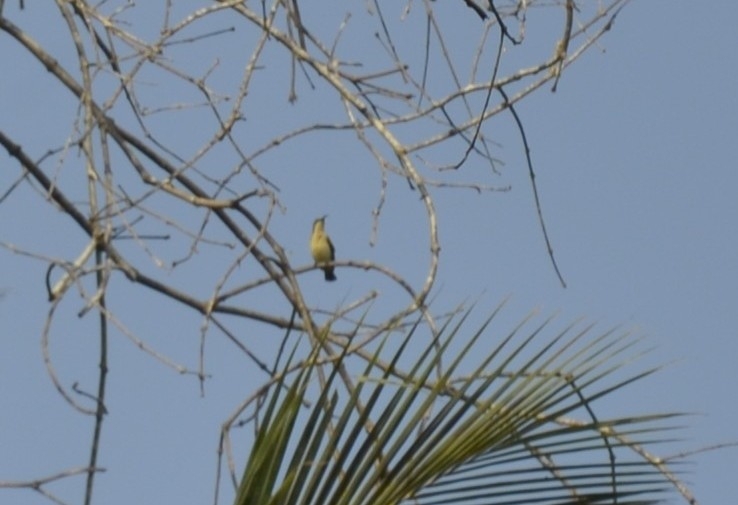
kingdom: Animalia
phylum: Chordata
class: Aves
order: Passeriformes
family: Nectariniidae
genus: Leptocoma
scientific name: Leptocoma zeylonica
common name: Purple-rumped sunbird
